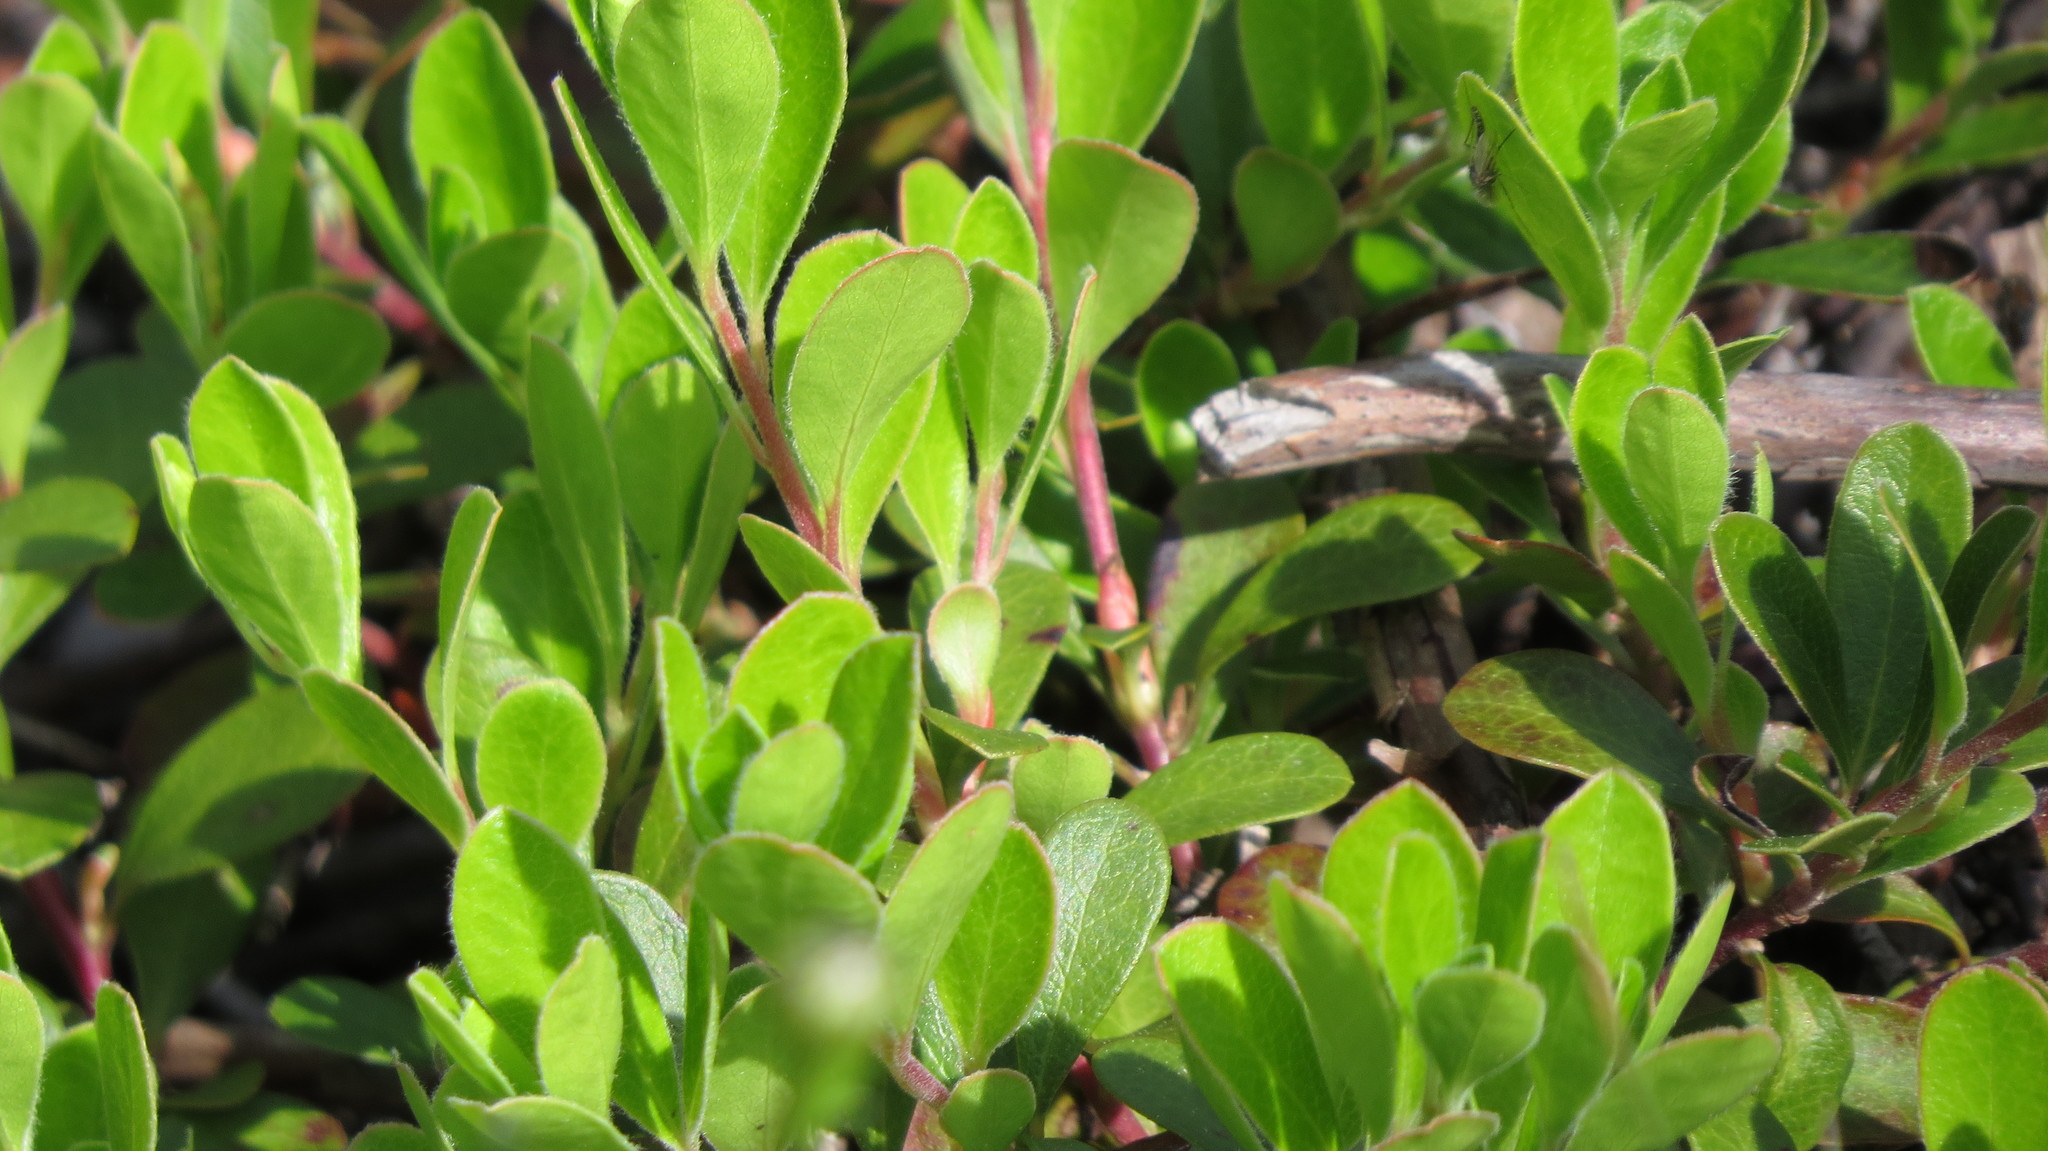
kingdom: Plantae
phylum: Tracheophyta
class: Magnoliopsida
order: Ericales
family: Ericaceae
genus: Arctostaphylos
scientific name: Arctostaphylos uva-ursi
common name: Bearberry
